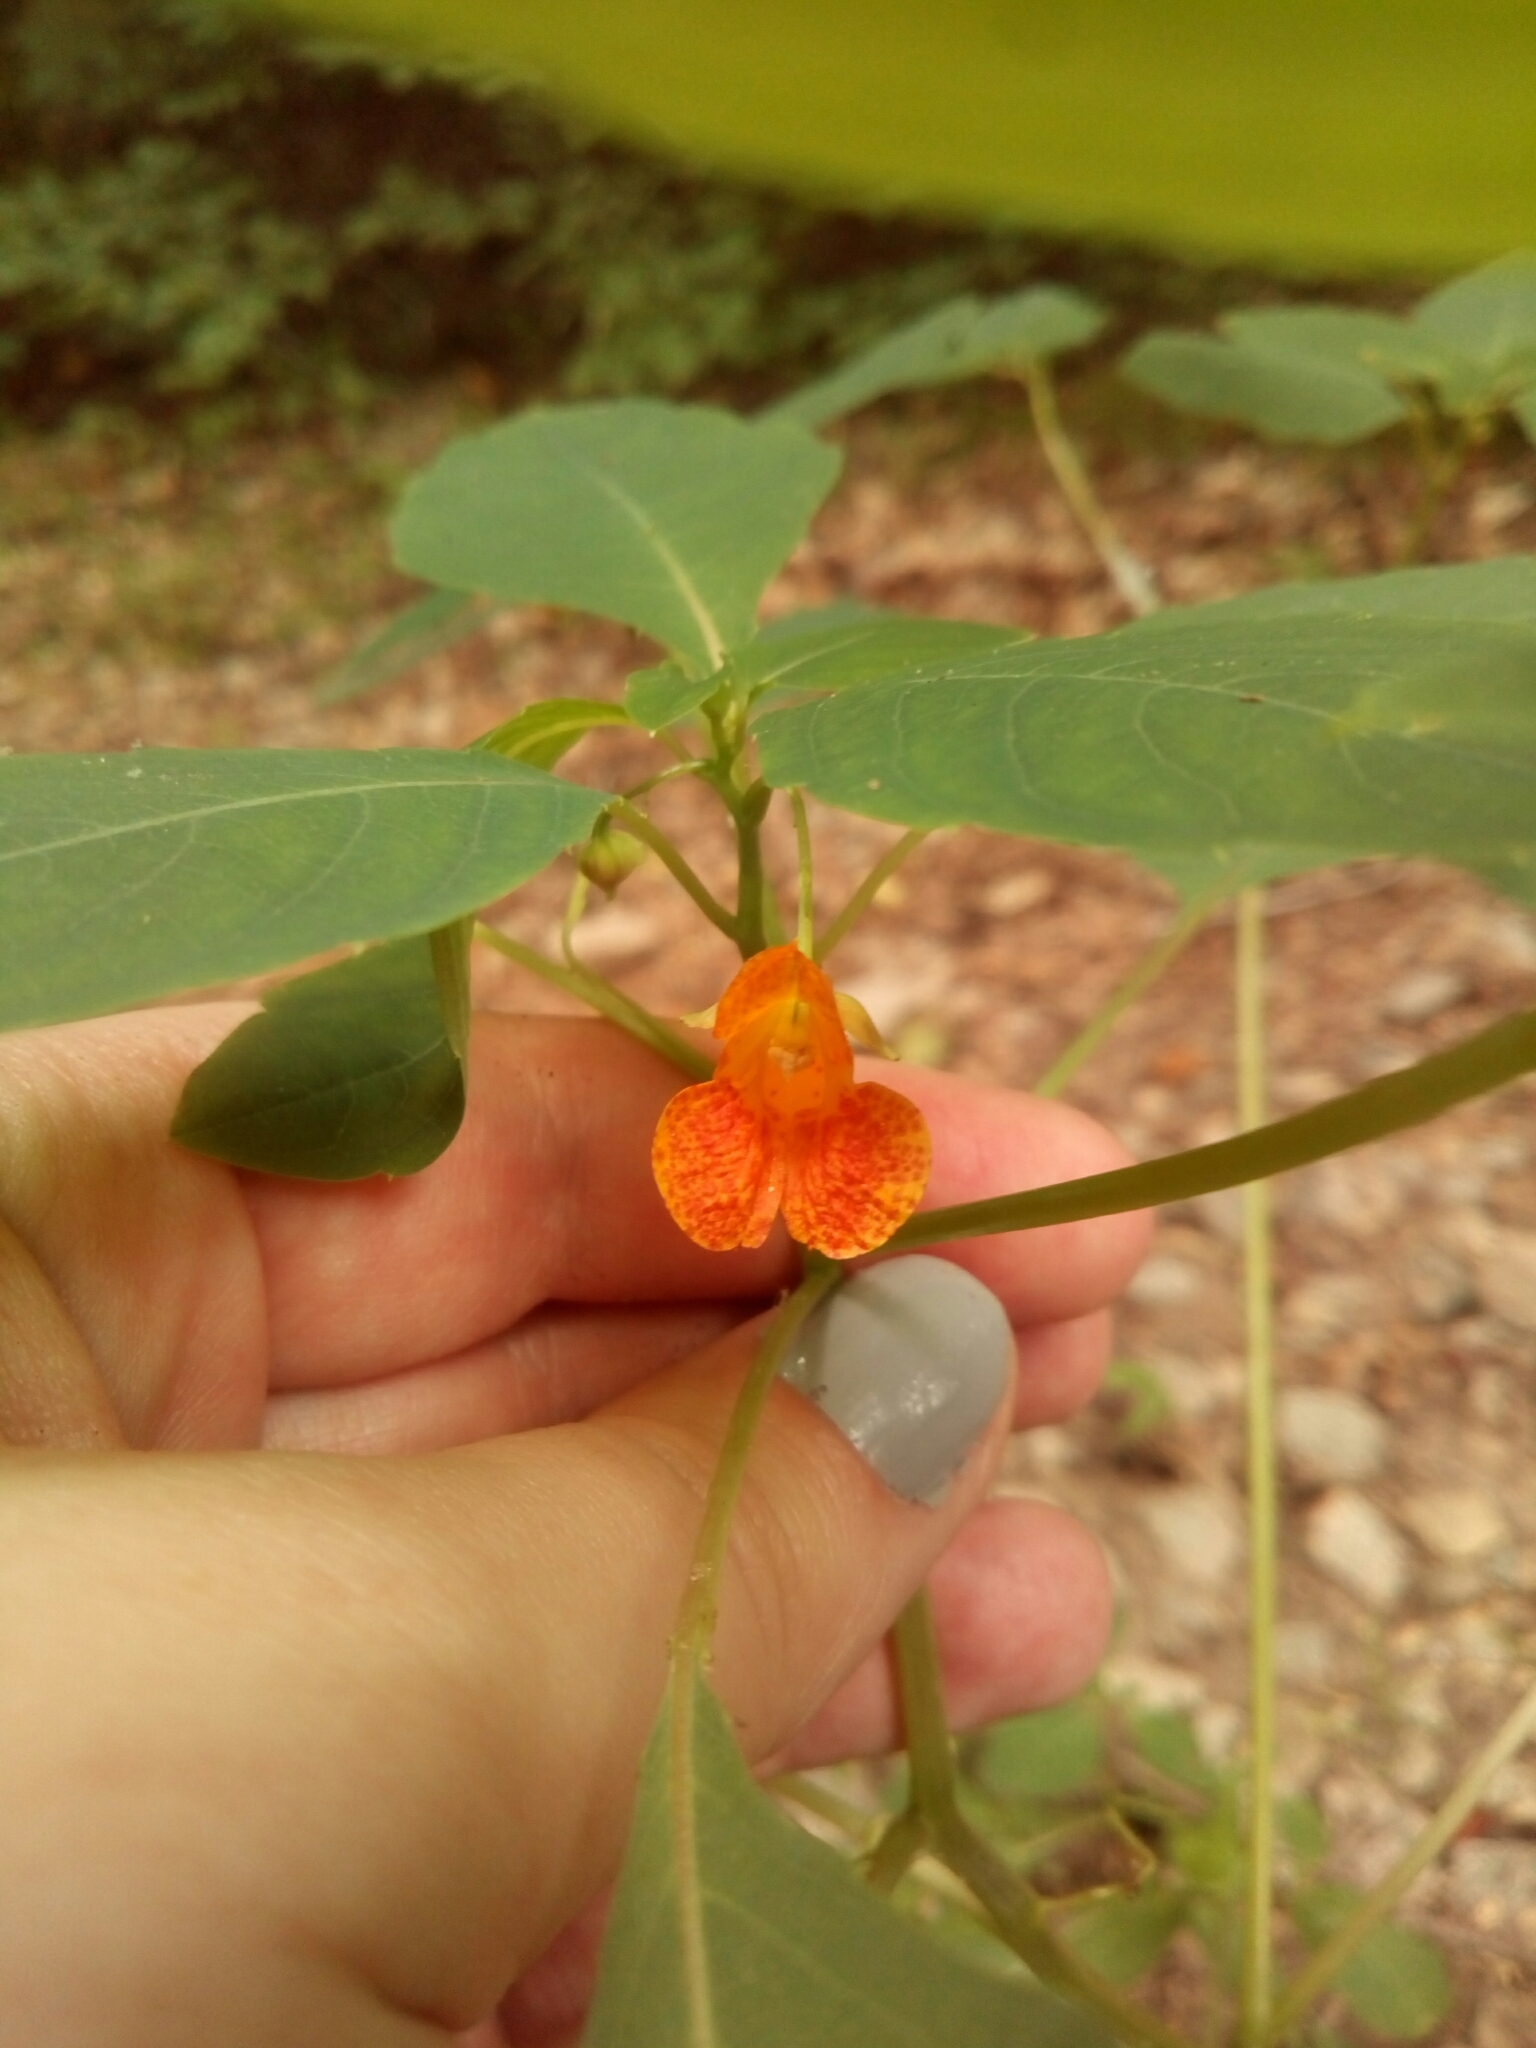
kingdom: Plantae
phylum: Tracheophyta
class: Magnoliopsida
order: Ericales
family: Balsaminaceae
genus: Impatiens
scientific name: Impatiens capensis
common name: Orange balsam
